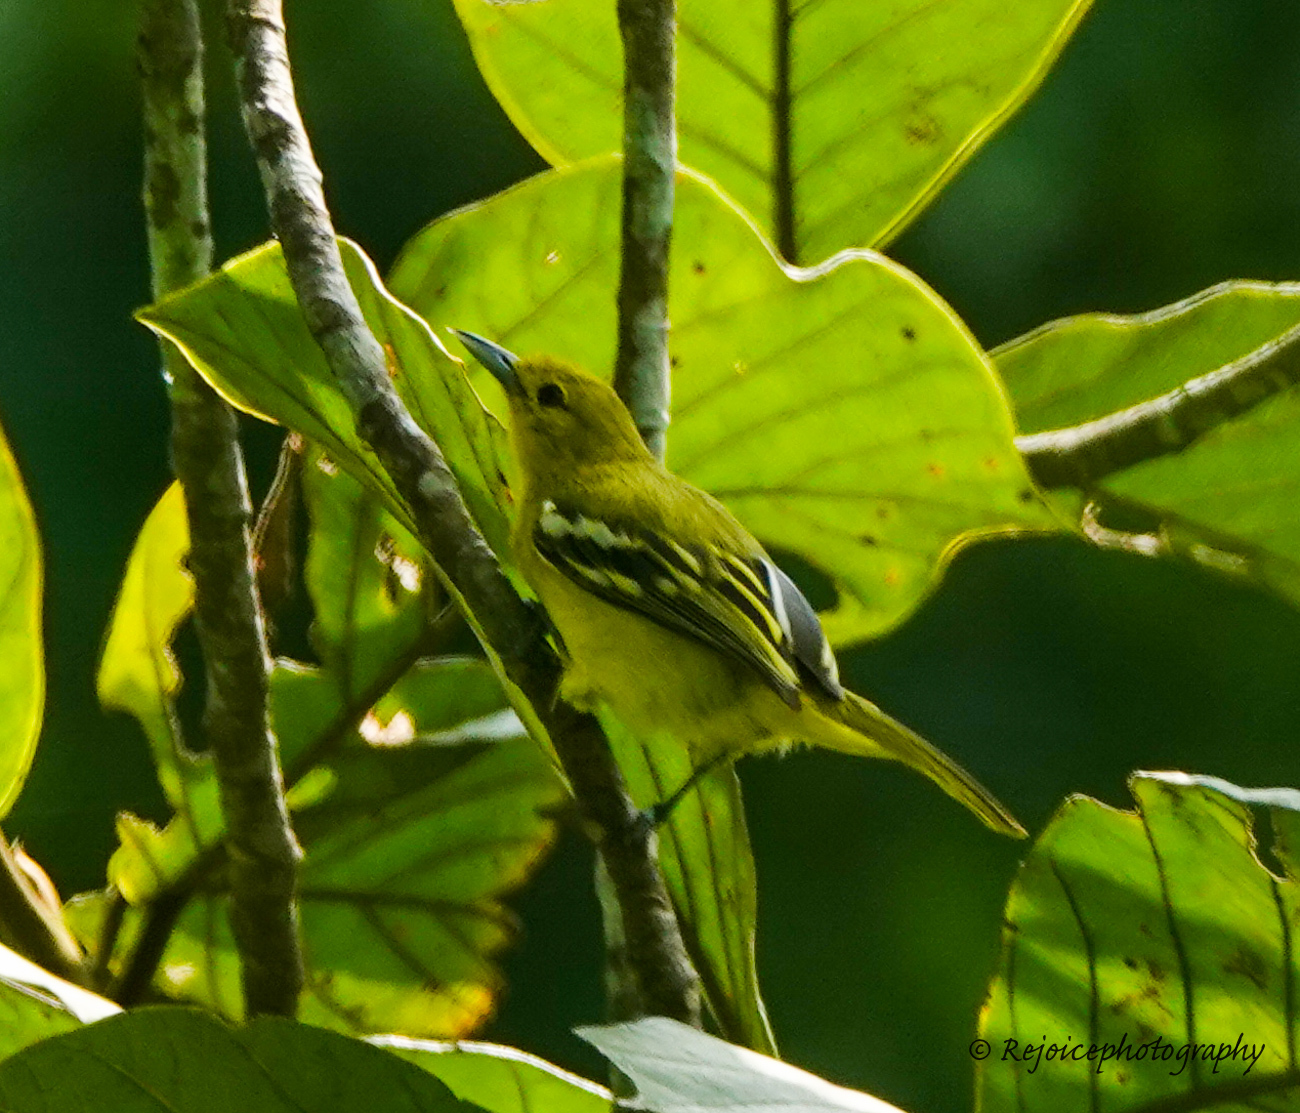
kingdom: Animalia
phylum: Chordata
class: Aves
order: Passeriformes
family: Aegithinidae
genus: Aegithina
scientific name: Aegithina tiphia
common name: Common iora
